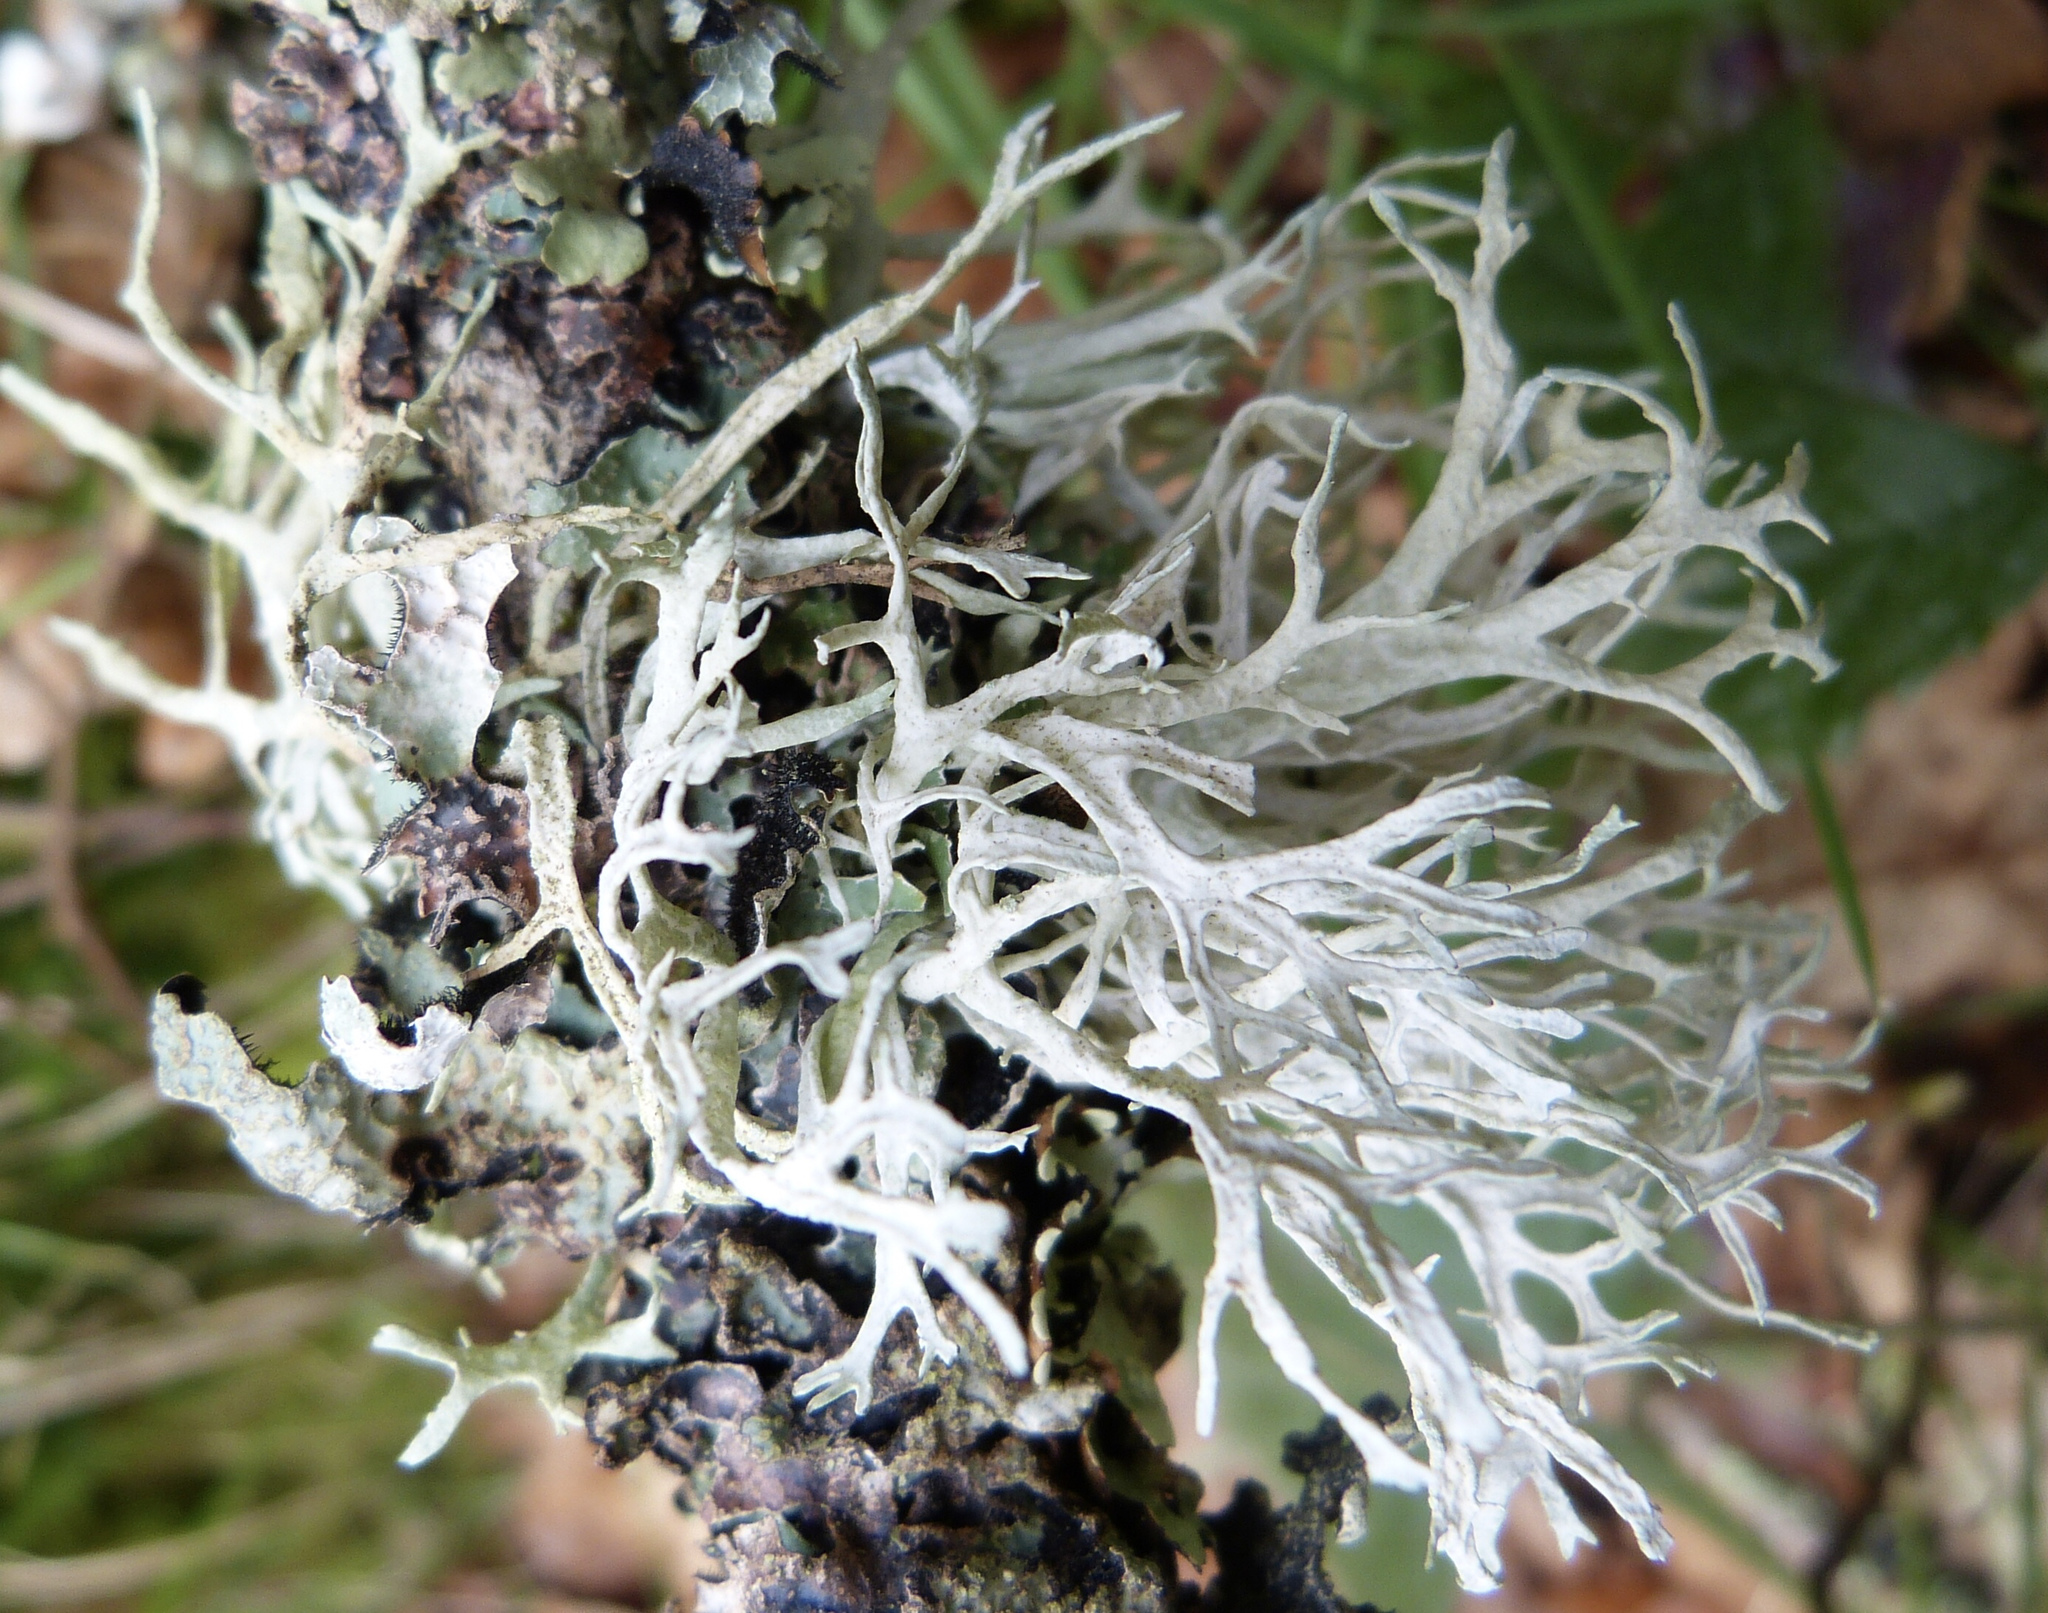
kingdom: Fungi
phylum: Ascomycota
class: Lecanoromycetes
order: Lecanorales
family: Parmeliaceae
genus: Evernia
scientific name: Evernia prunastri
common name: Oak moss
